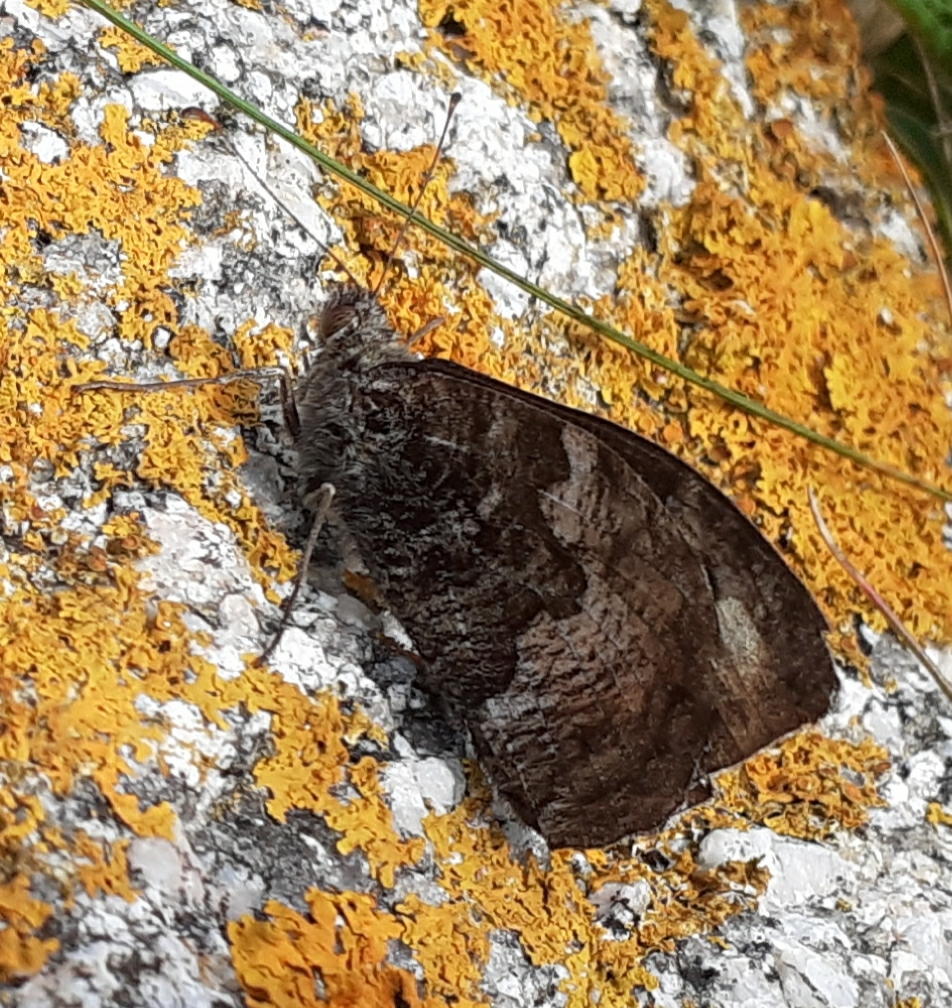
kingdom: Animalia
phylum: Arthropoda
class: Insecta
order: Lepidoptera
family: Nymphalidae
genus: Hipparchia
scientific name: Hipparchia semele
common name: Grayling
